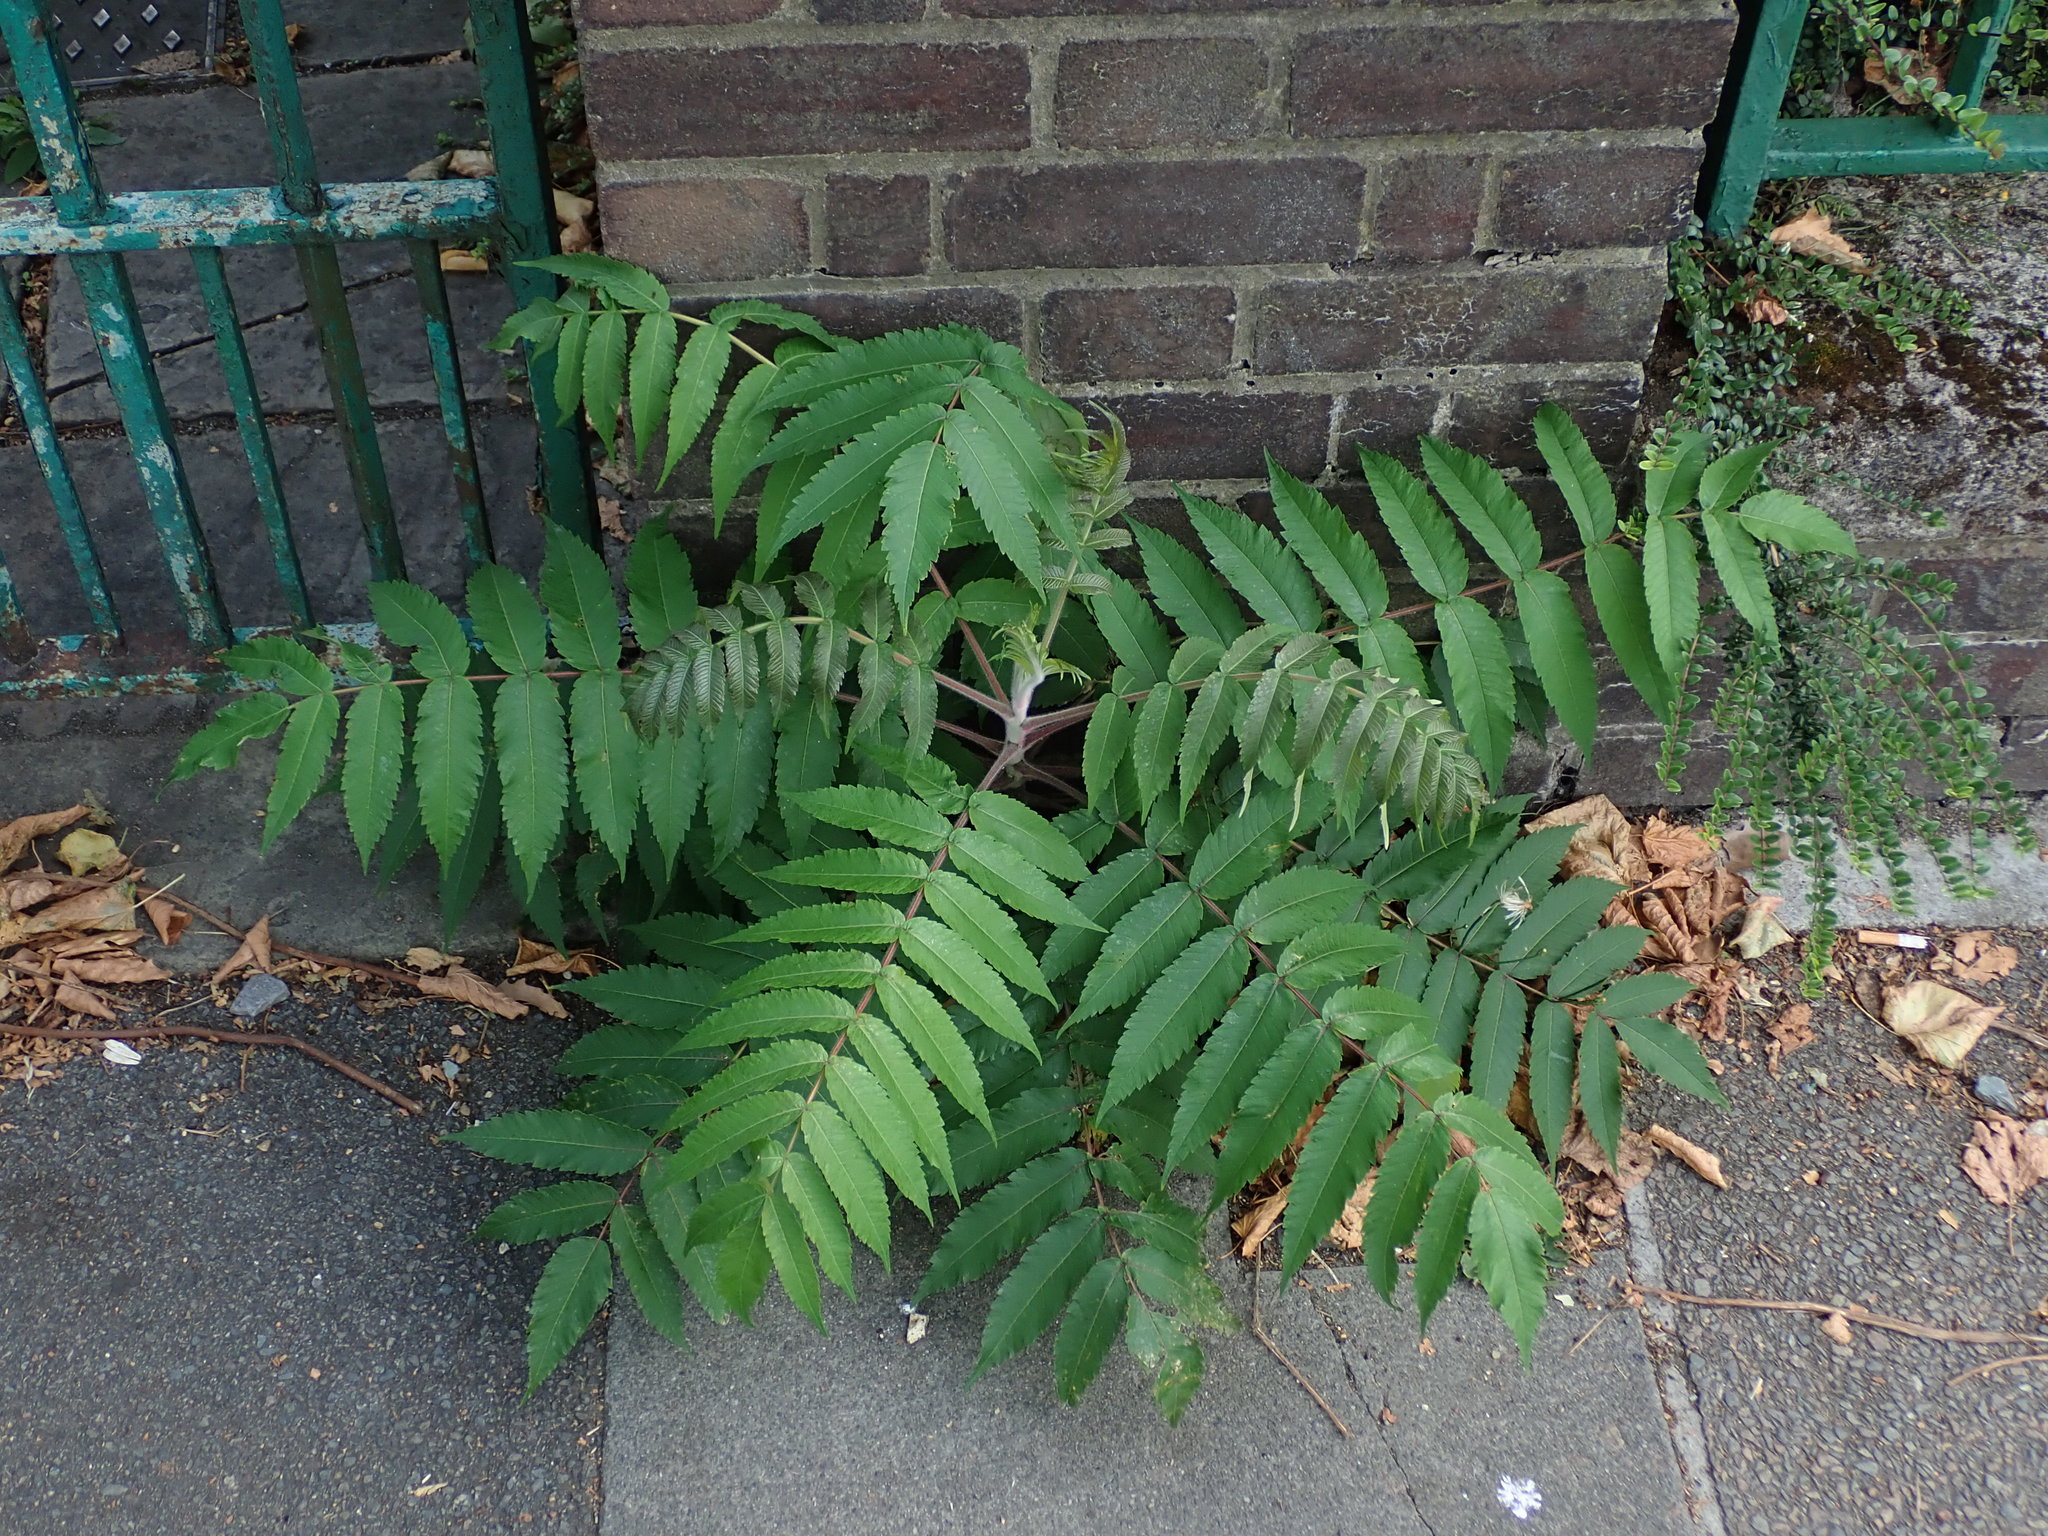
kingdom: Plantae
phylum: Tracheophyta
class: Magnoliopsida
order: Sapindales
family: Anacardiaceae
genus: Rhus
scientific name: Rhus typhina
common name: Staghorn sumac
